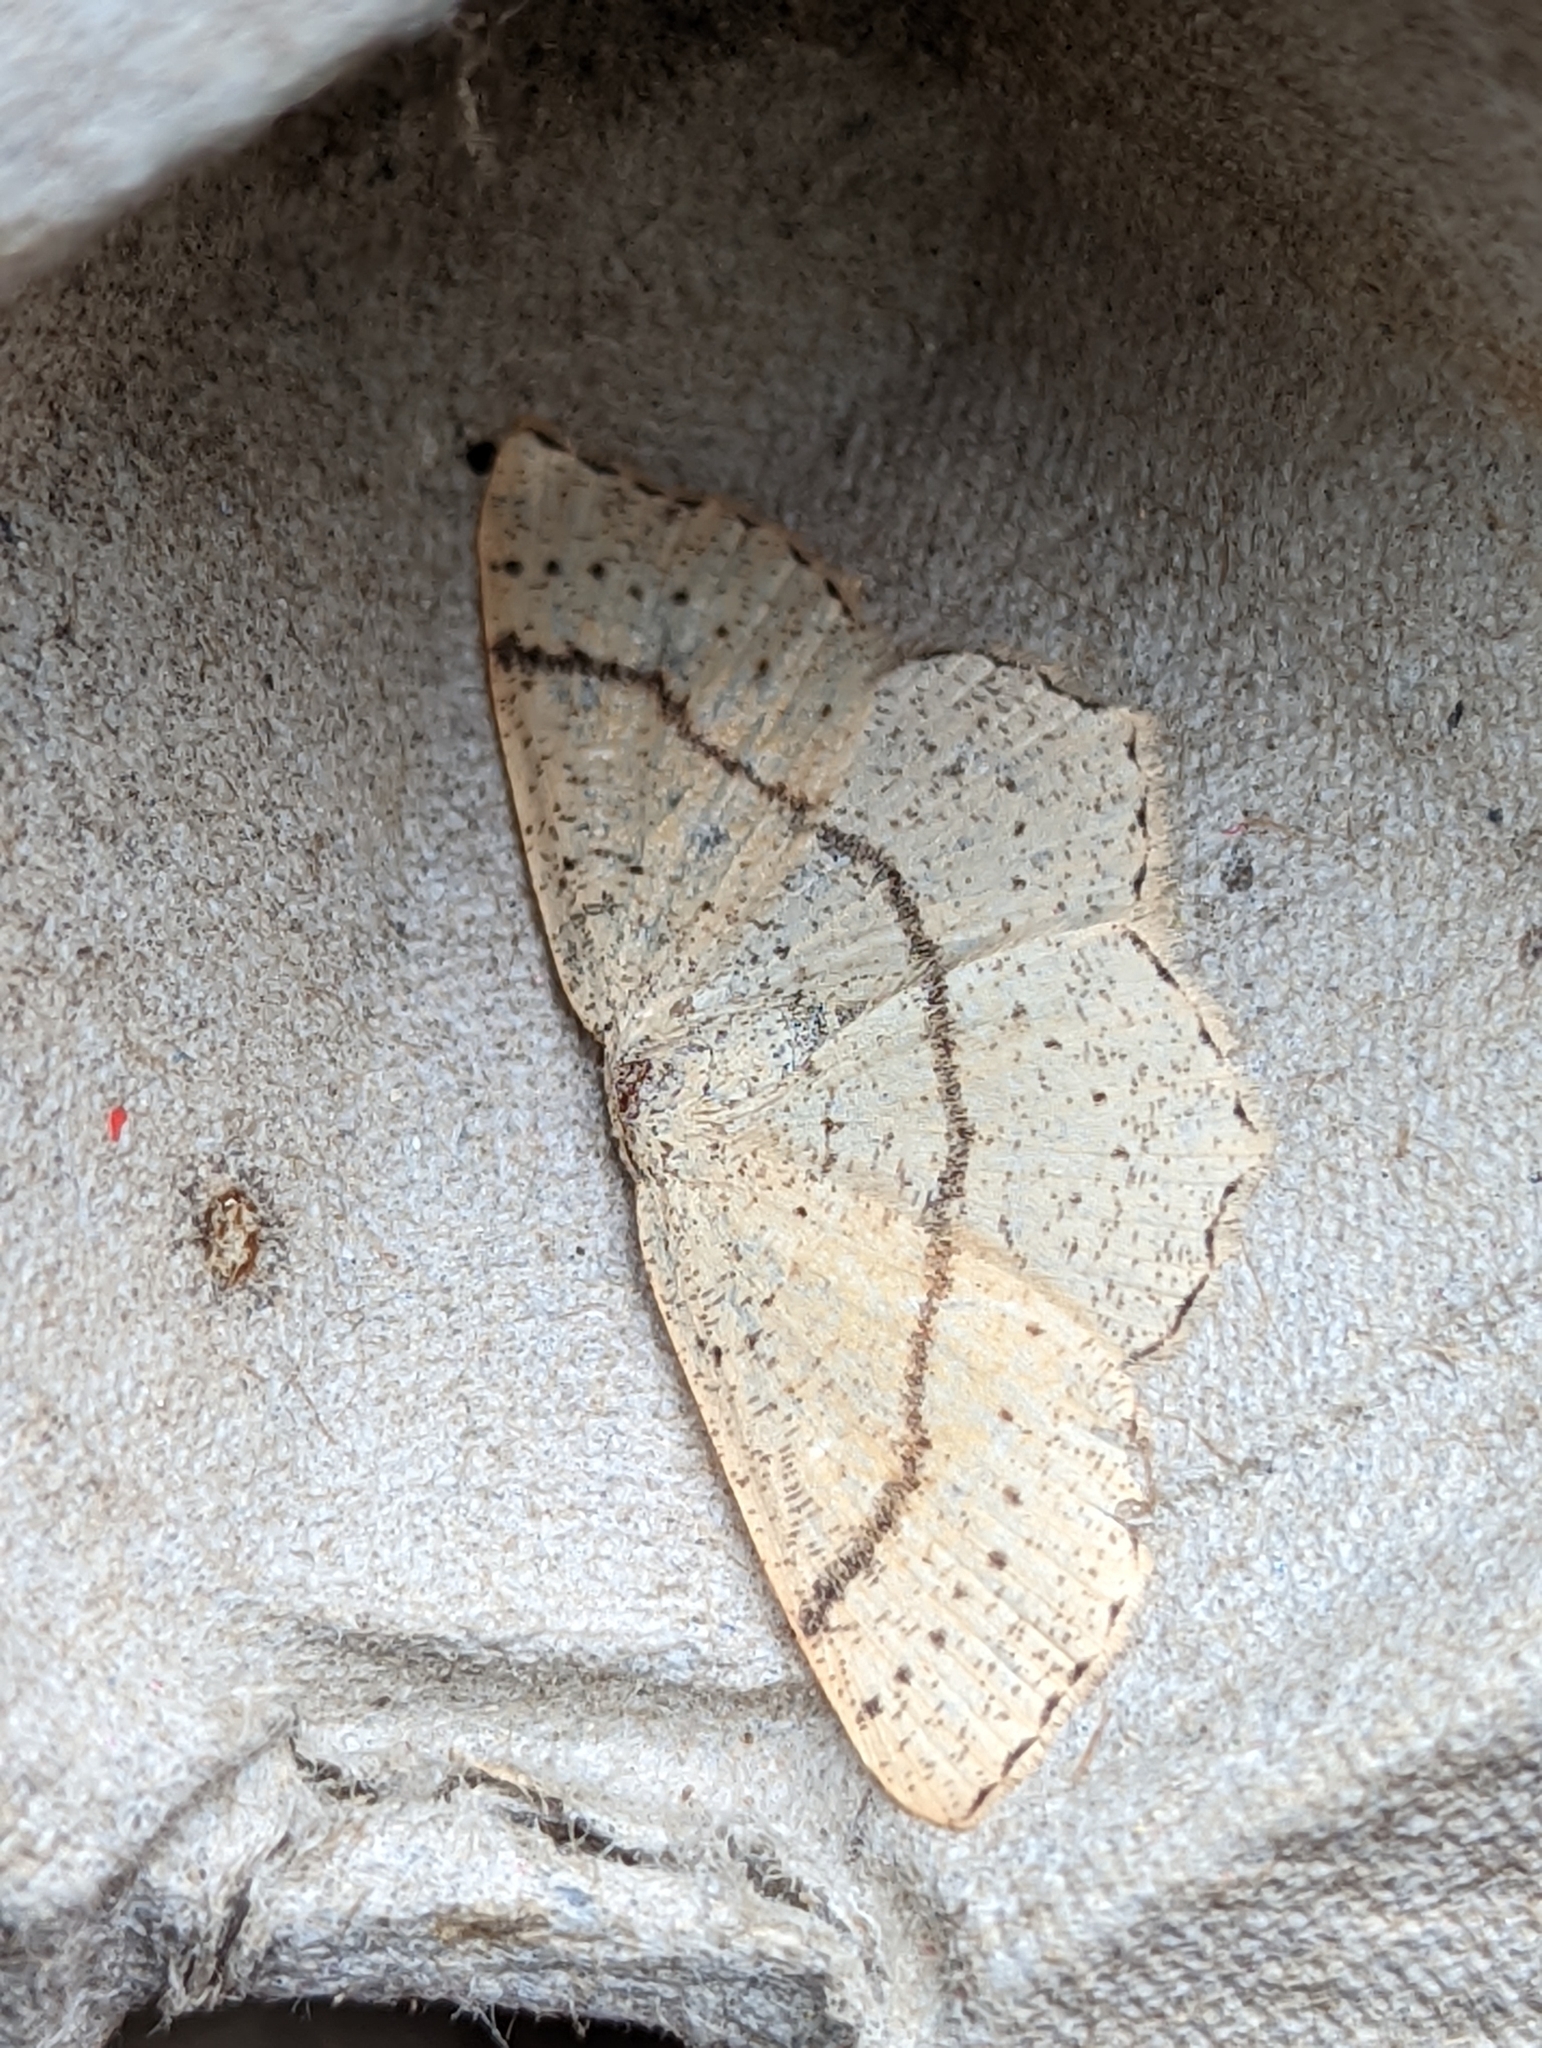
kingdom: Animalia
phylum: Arthropoda
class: Insecta
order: Lepidoptera
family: Geometridae
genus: Cyclophora
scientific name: Cyclophora punctaria
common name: Maiden's blush
